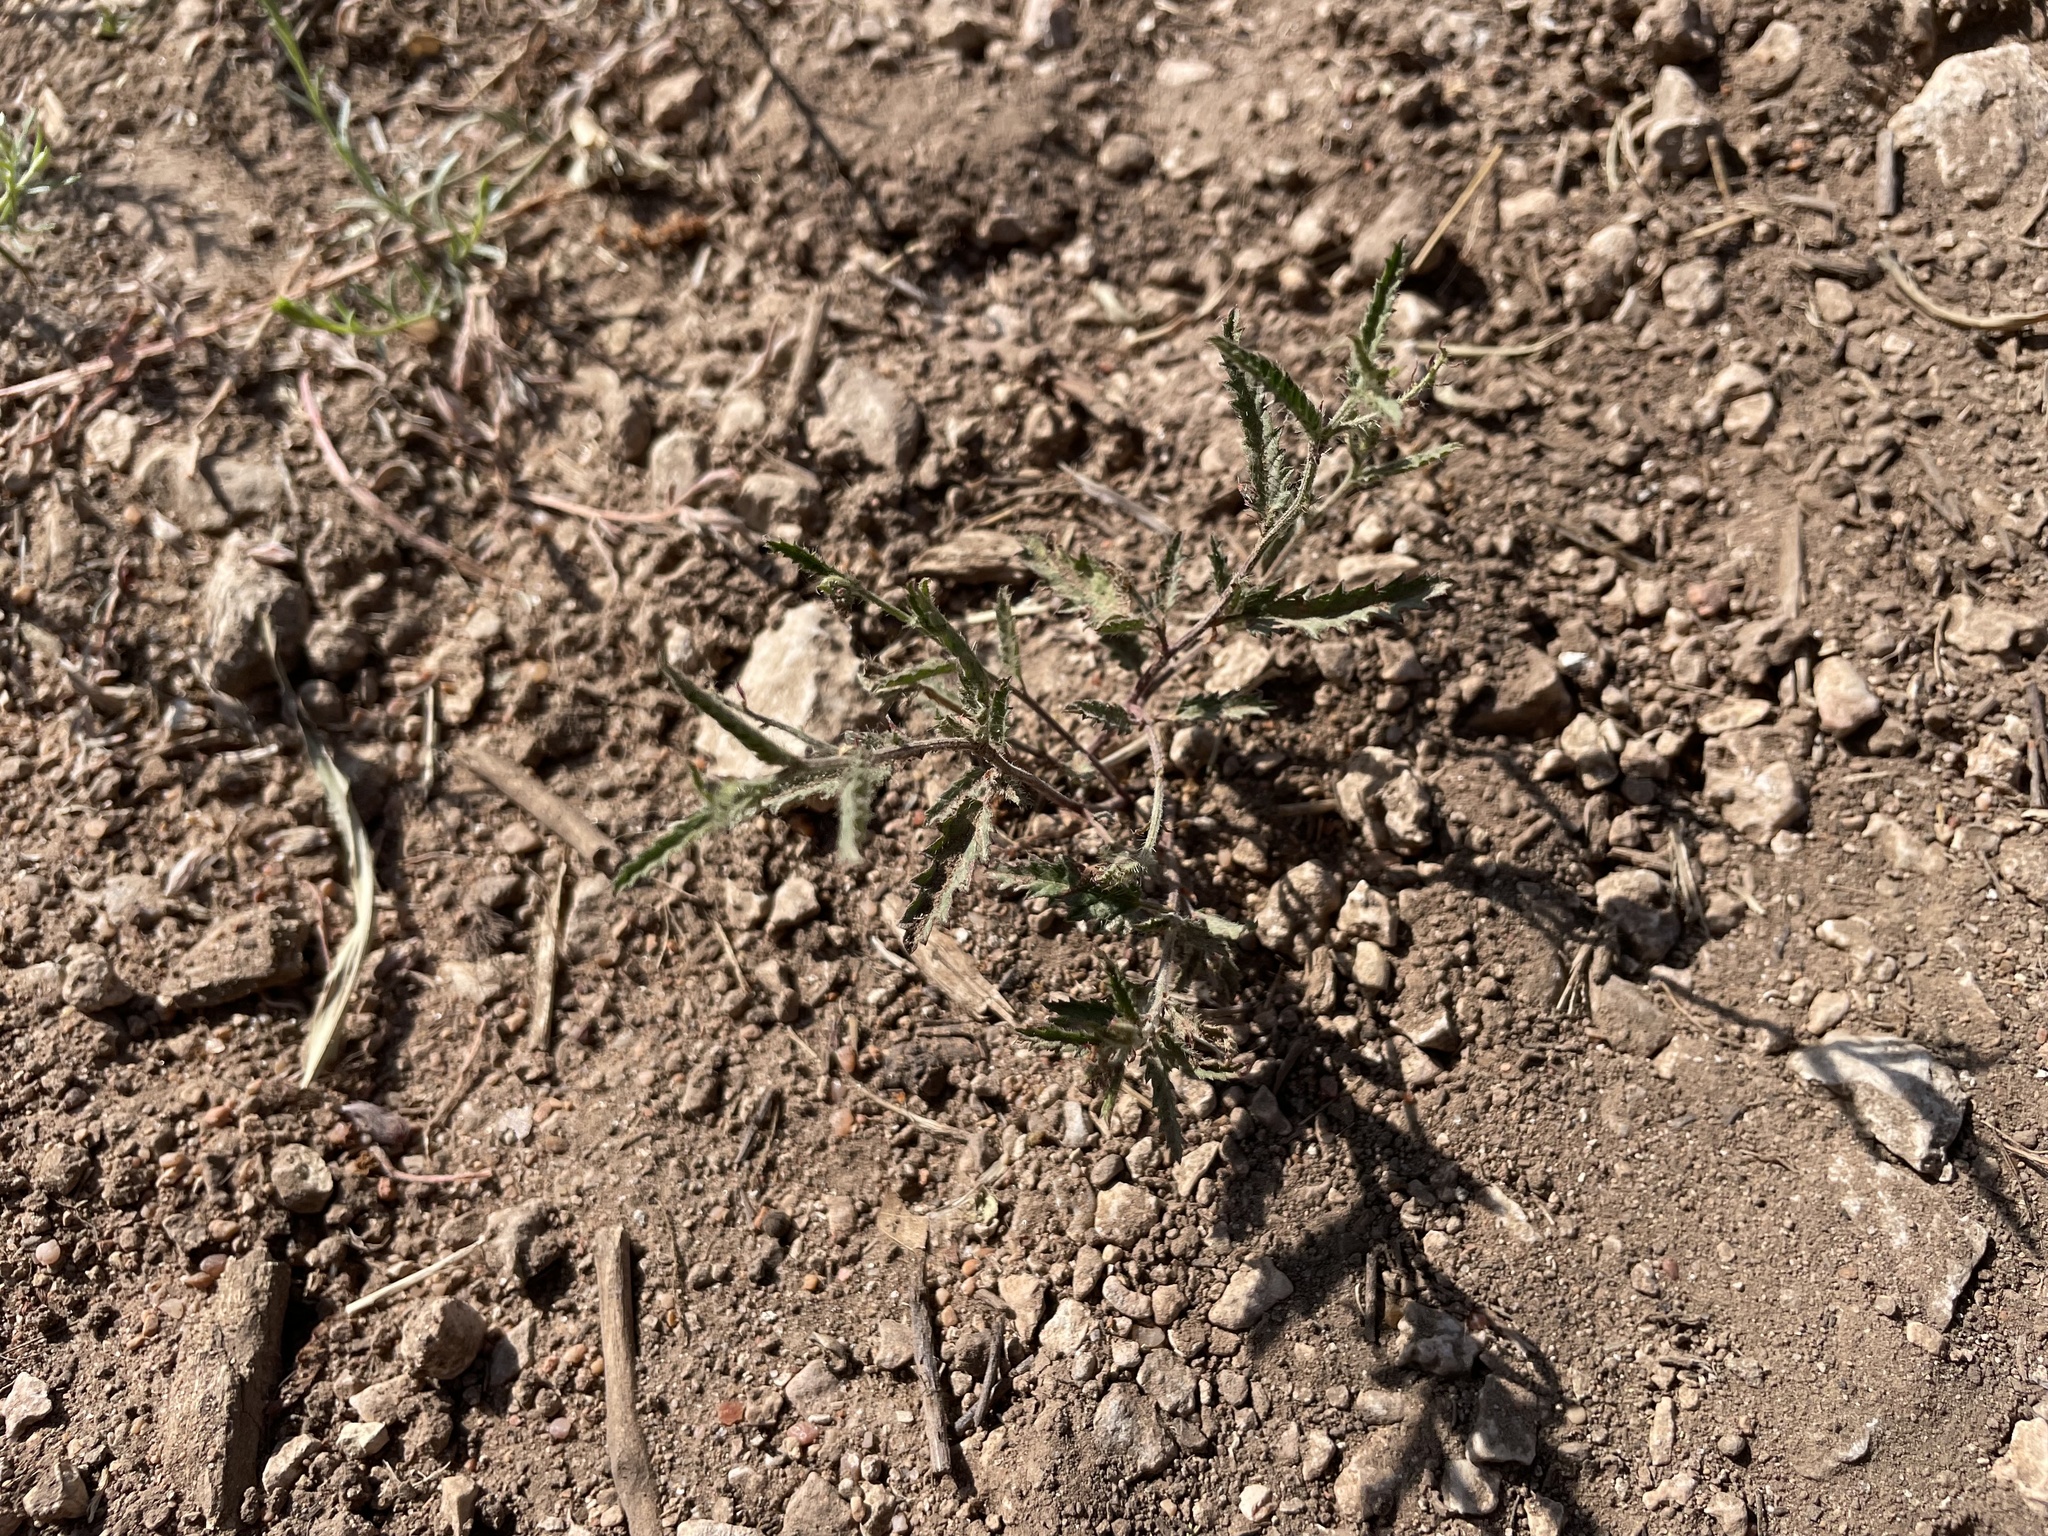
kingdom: Plantae
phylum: Tracheophyta
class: Magnoliopsida
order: Malpighiales
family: Euphorbiaceae
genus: Tragia
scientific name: Tragia ramosa
